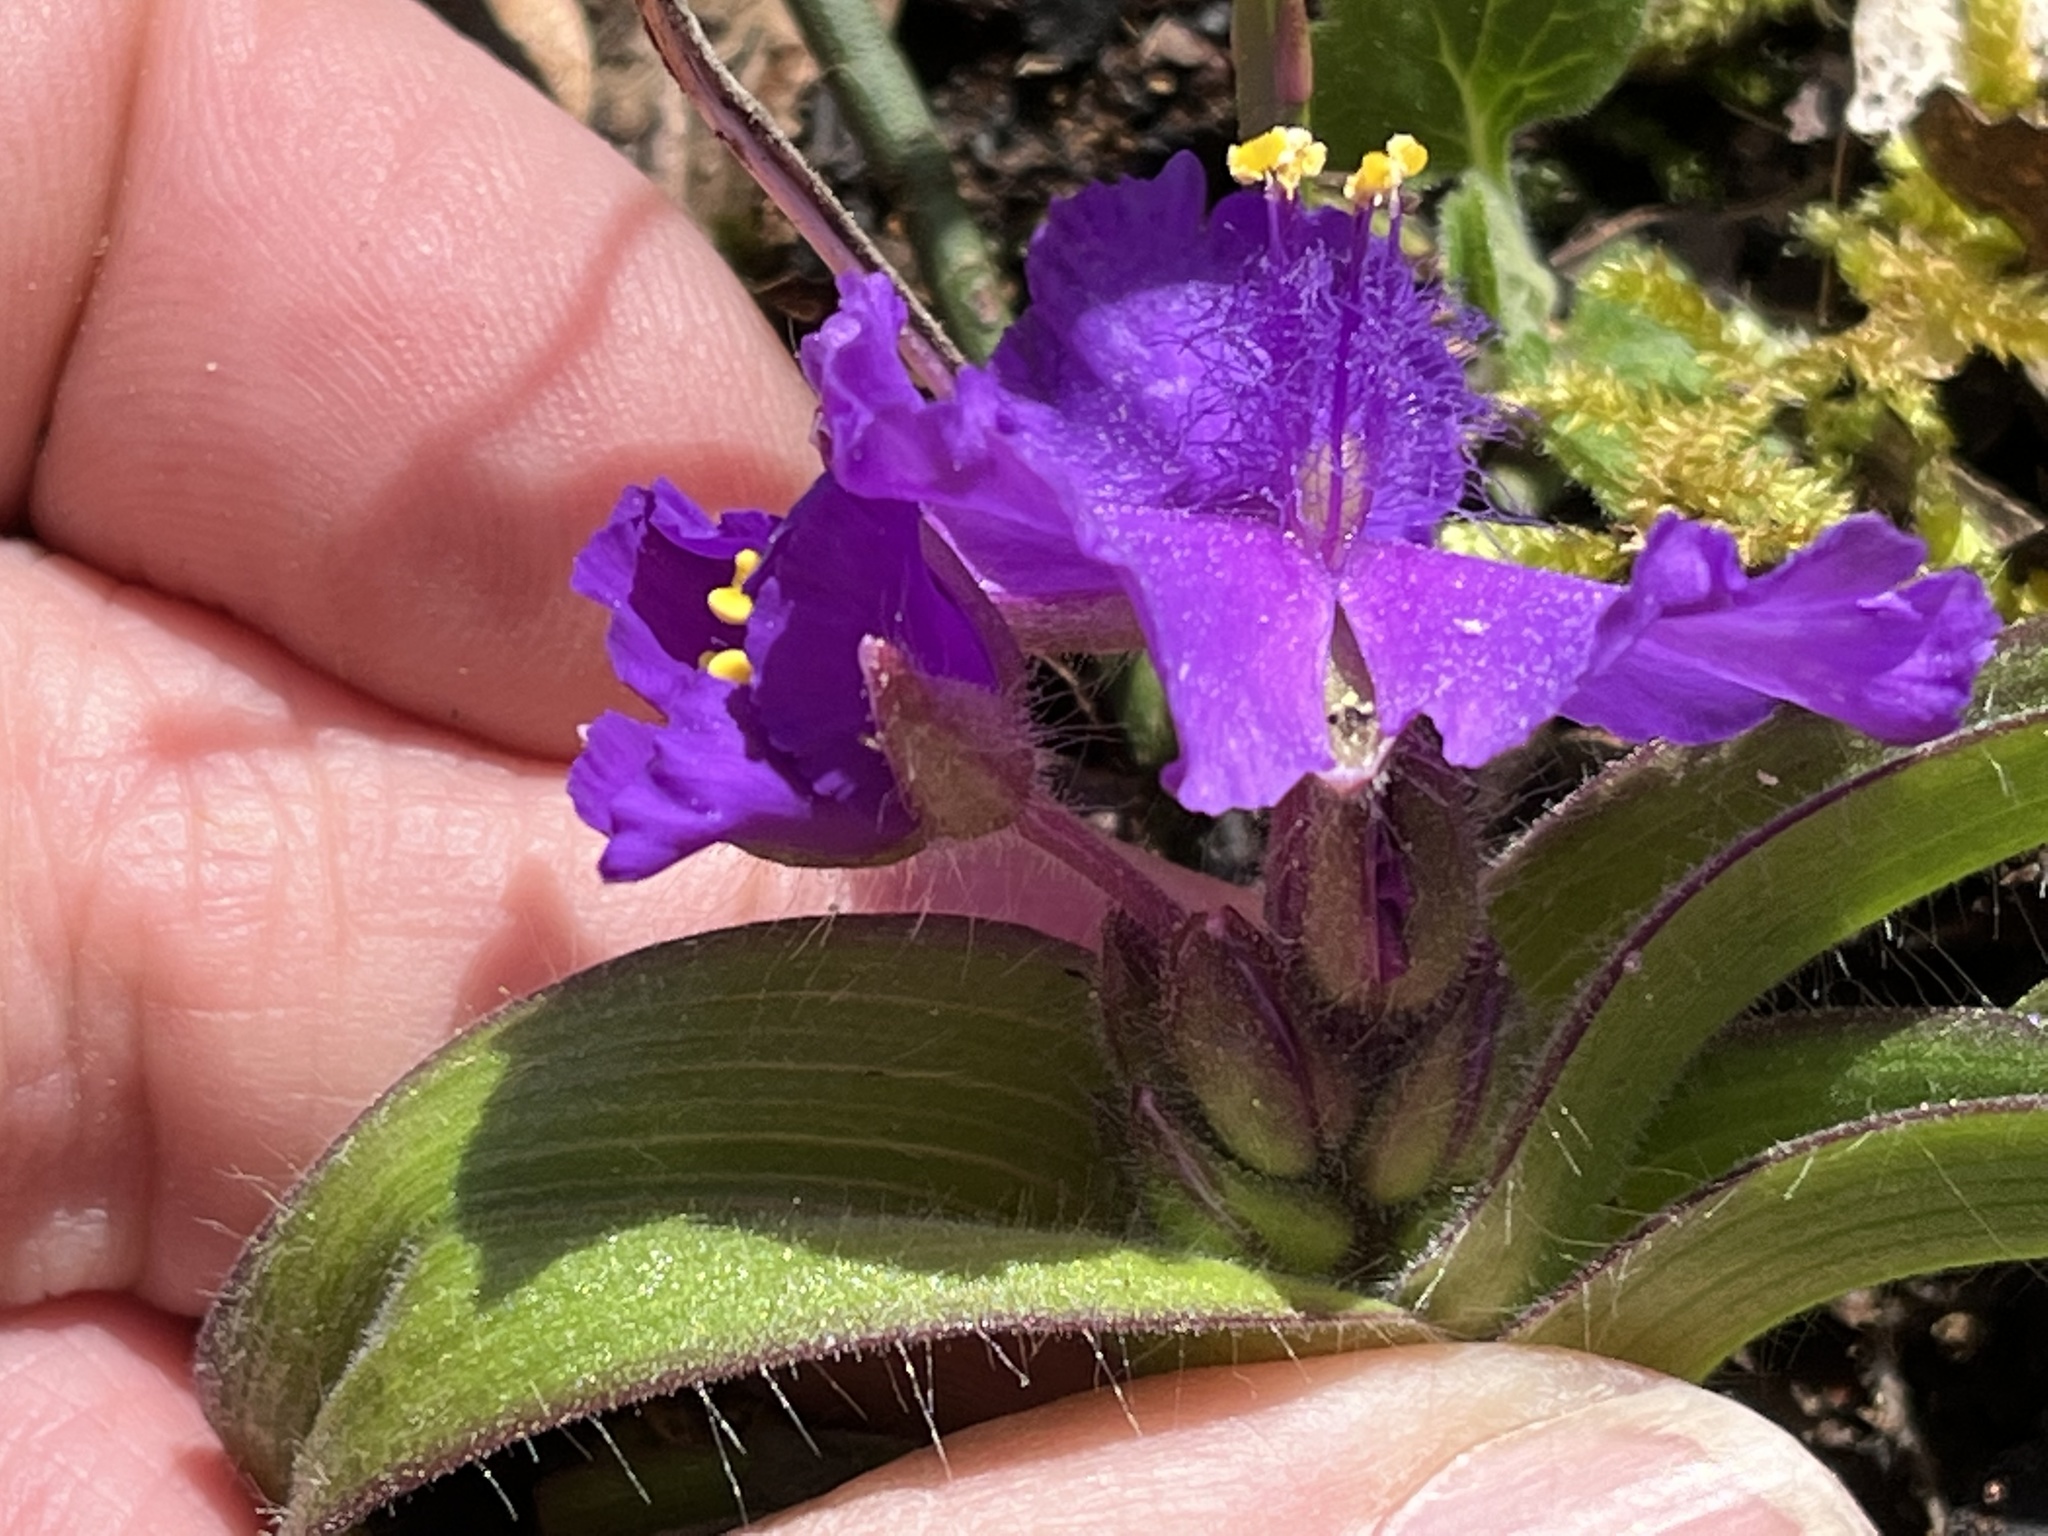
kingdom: Plantae
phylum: Tracheophyta
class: Liliopsida
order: Commelinales
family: Commelinaceae
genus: Tradescantia
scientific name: Tradescantia hirsuticaulis
